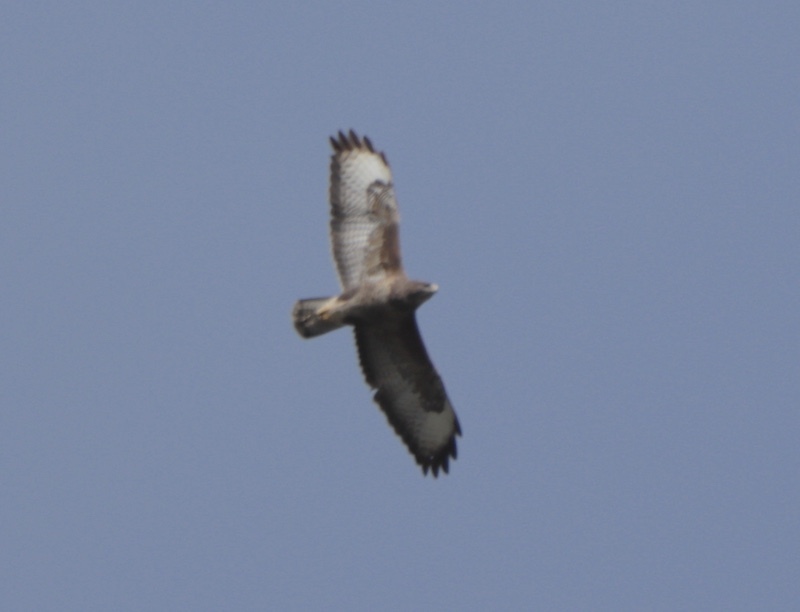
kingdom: Animalia
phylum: Chordata
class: Aves
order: Accipitriformes
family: Accipitridae
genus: Buteo
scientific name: Buteo buteo
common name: Common buzzard
